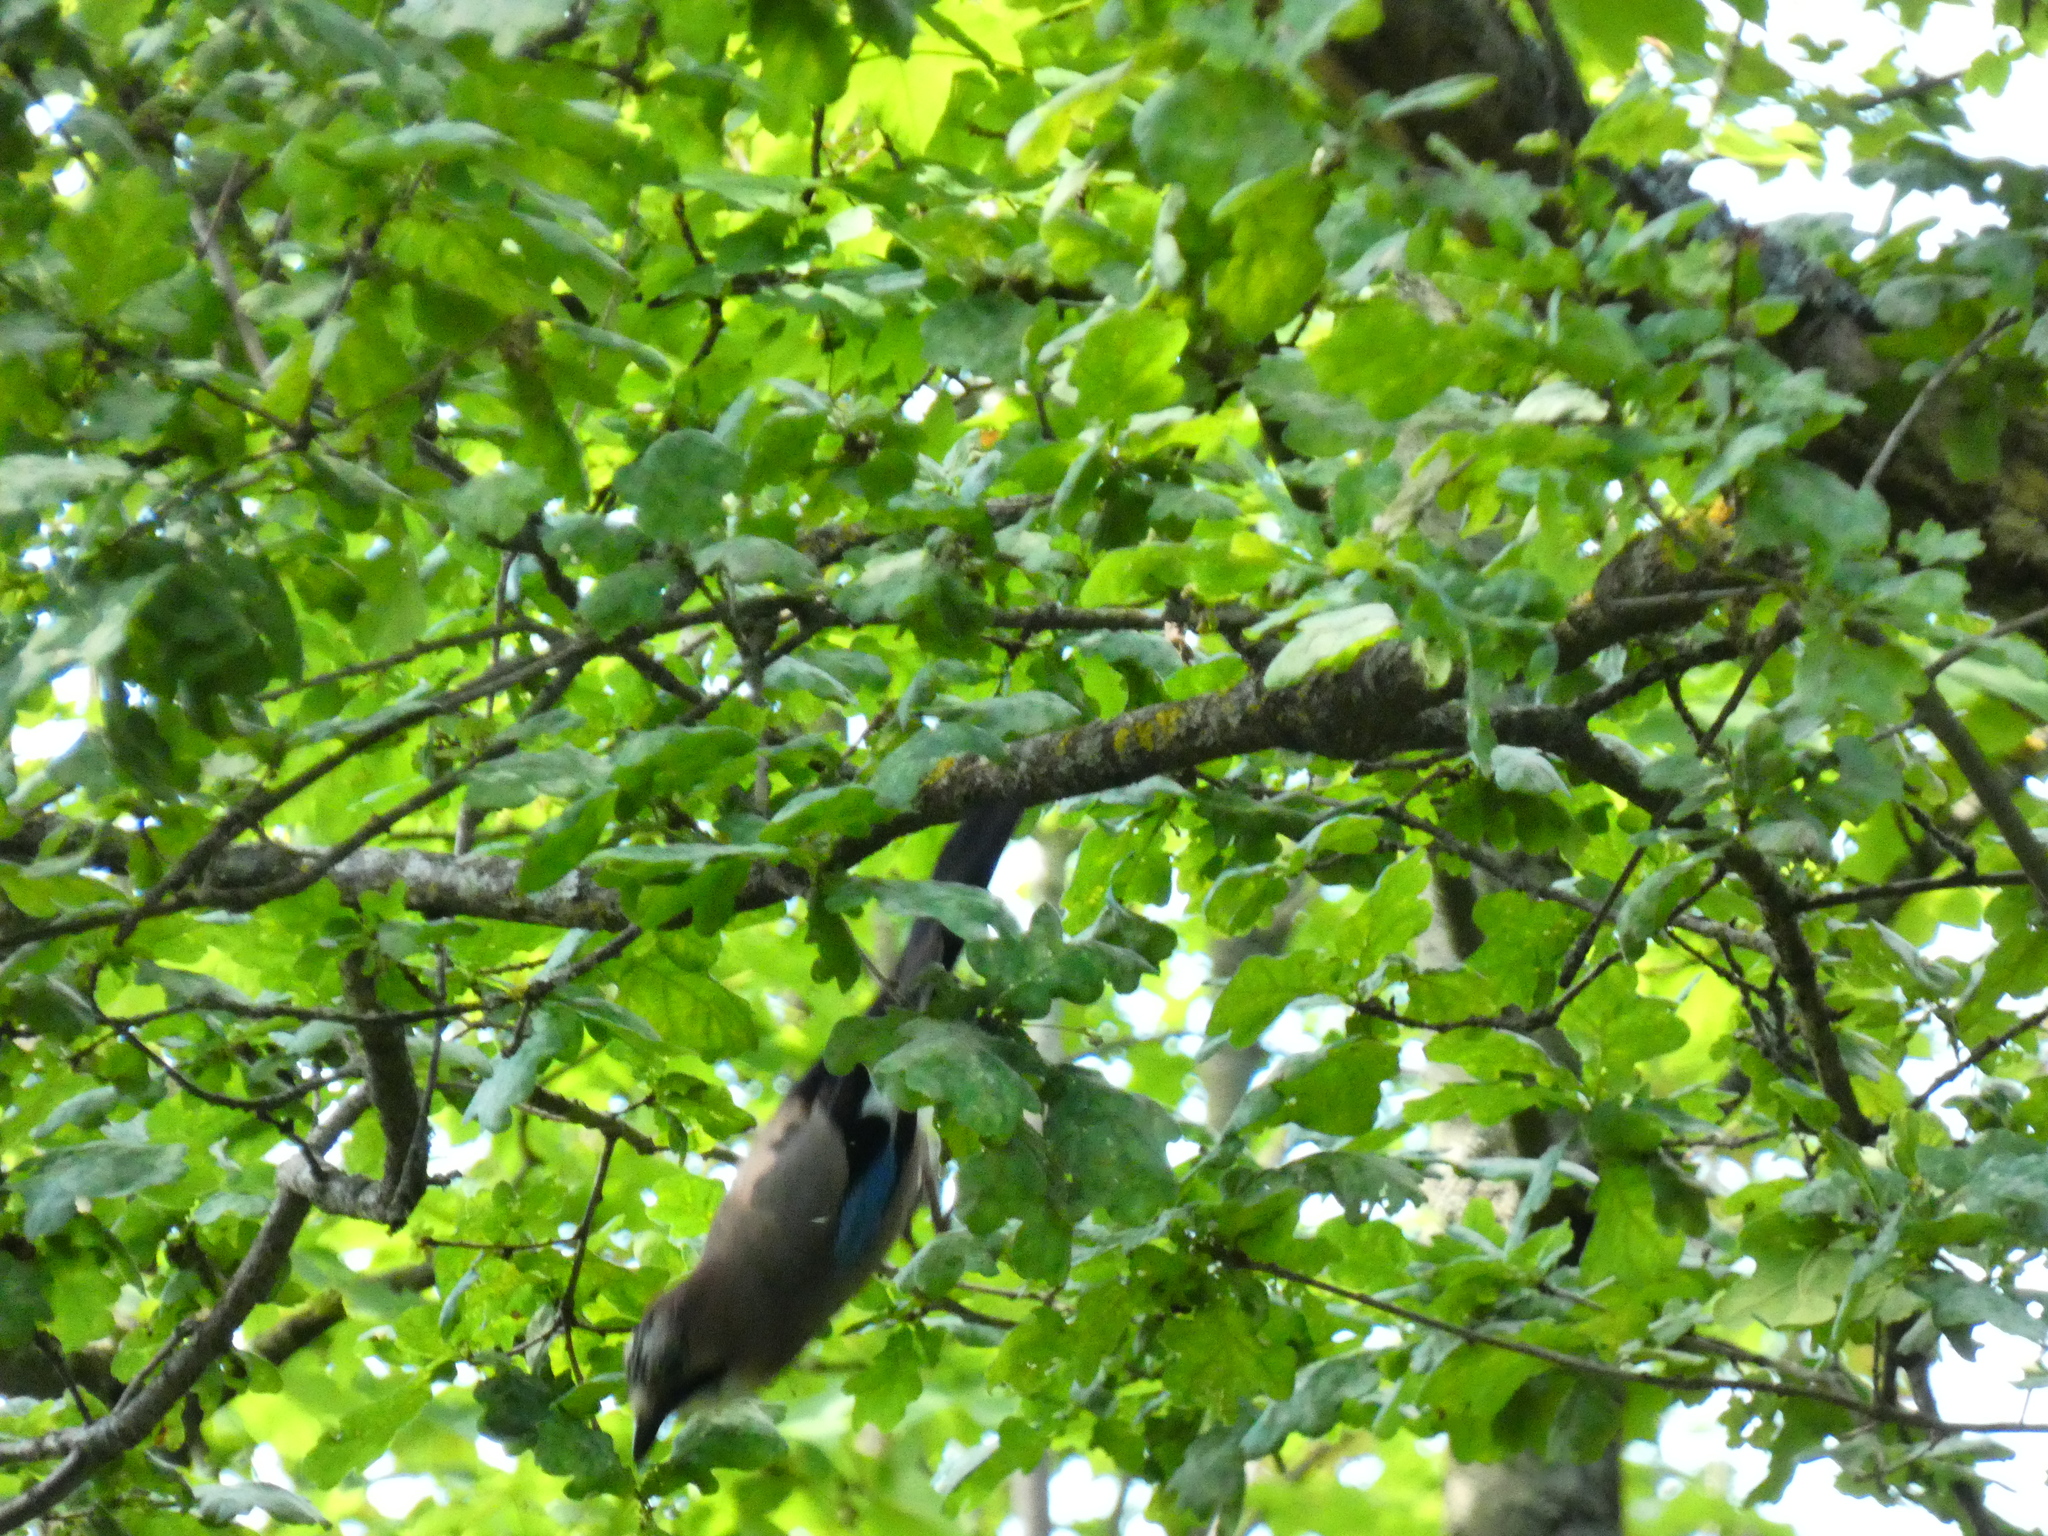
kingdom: Animalia
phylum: Chordata
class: Aves
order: Passeriformes
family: Corvidae
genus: Garrulus
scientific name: Garrulus glandarius
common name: Eurasian jay
